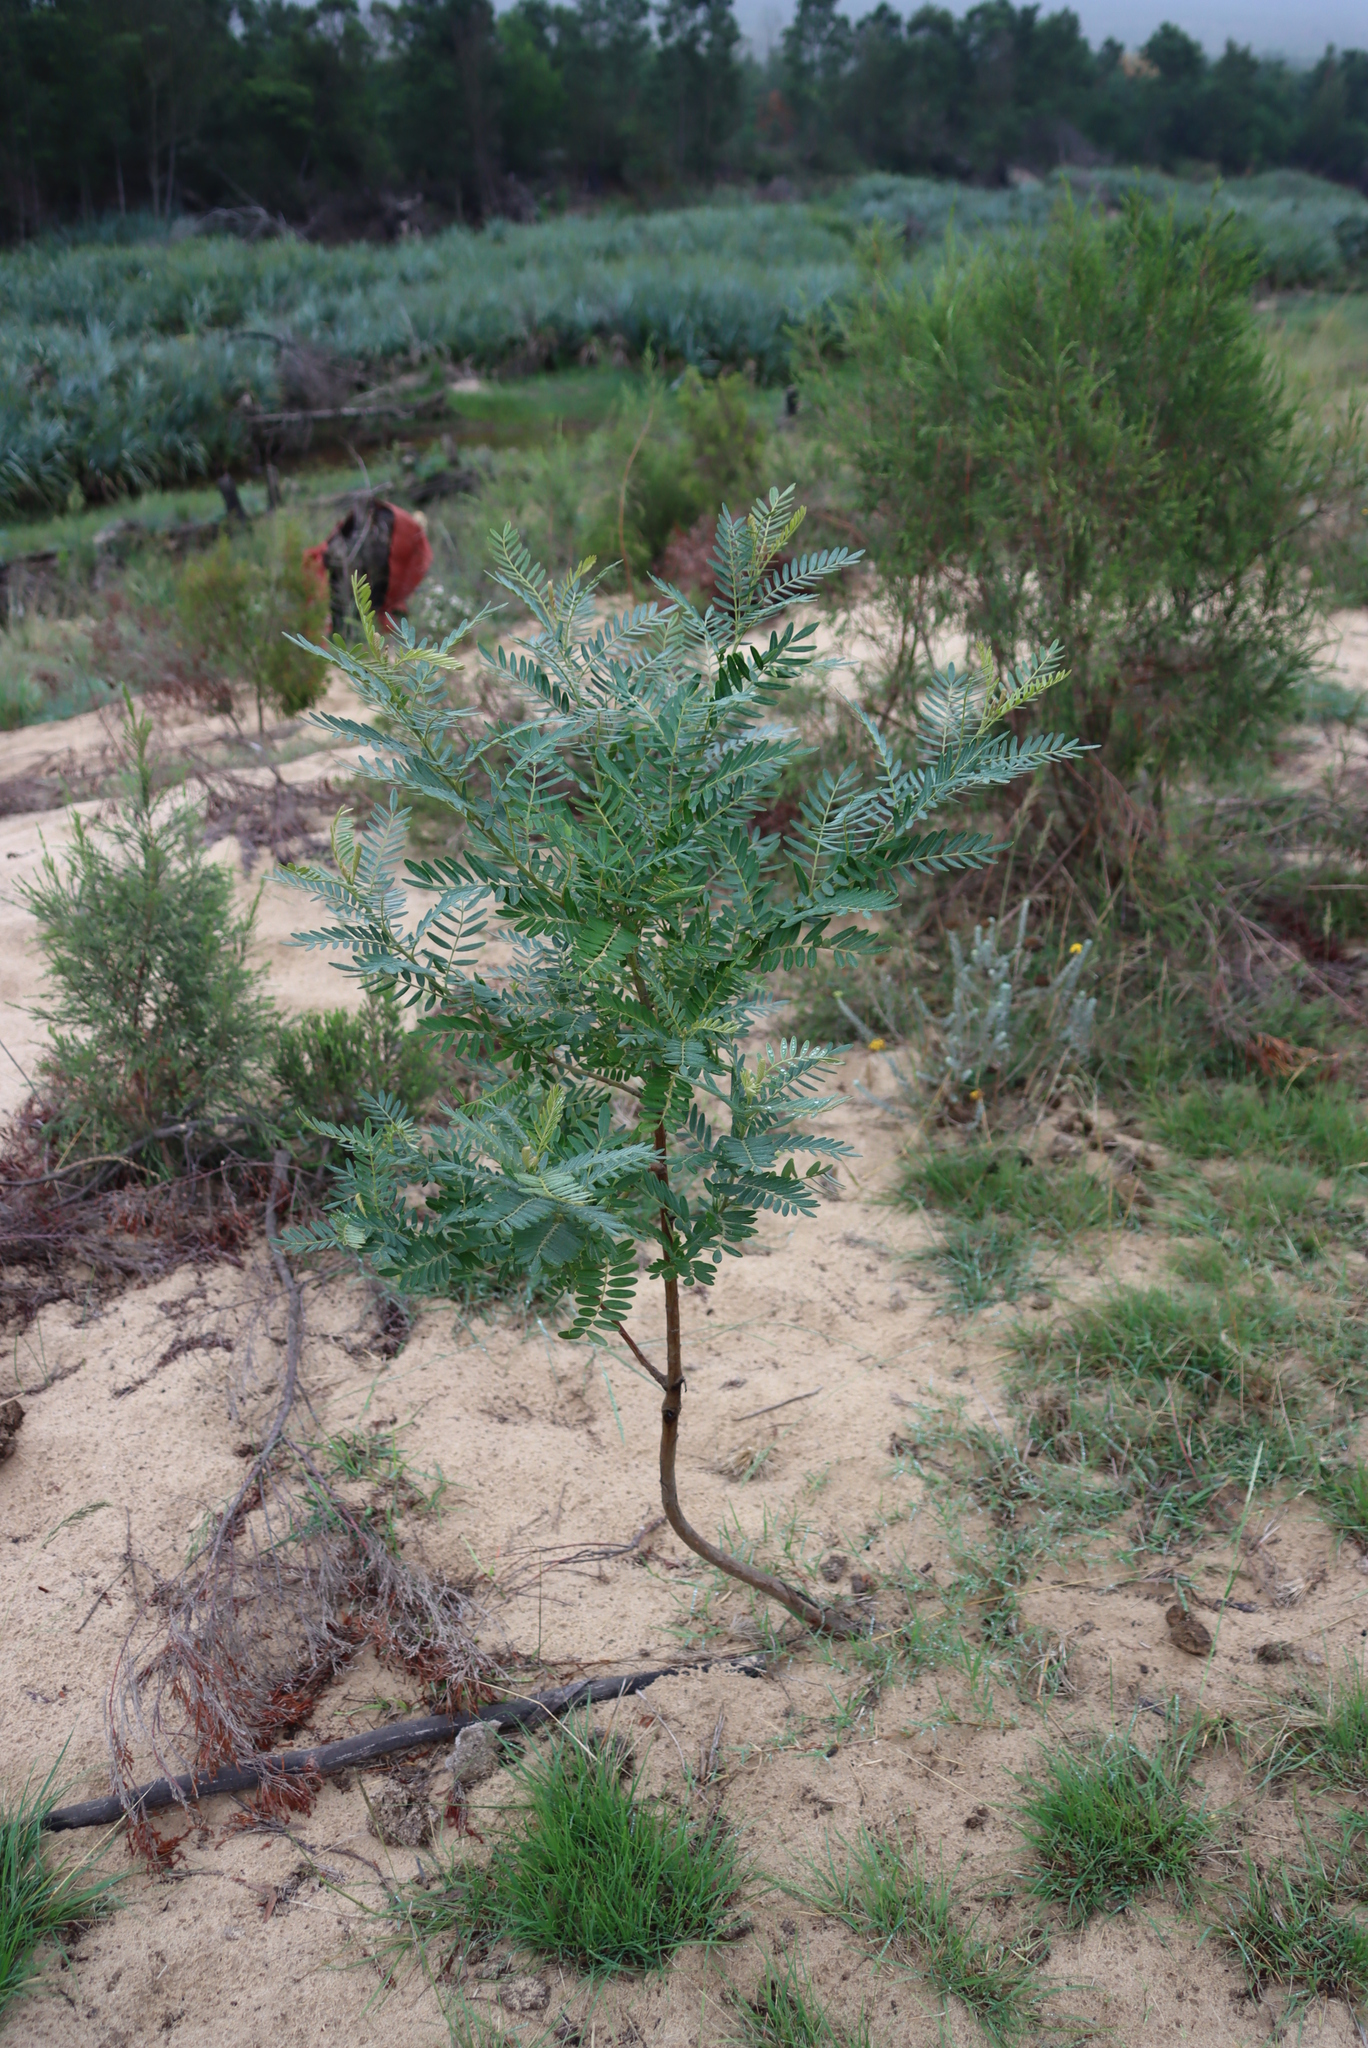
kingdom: Plantae
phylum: Tracheophyta
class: Magnoliopsida
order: Fabales
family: Fabaceae
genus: Sesbania
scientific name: Sesbania punicea
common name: Rattlebox
